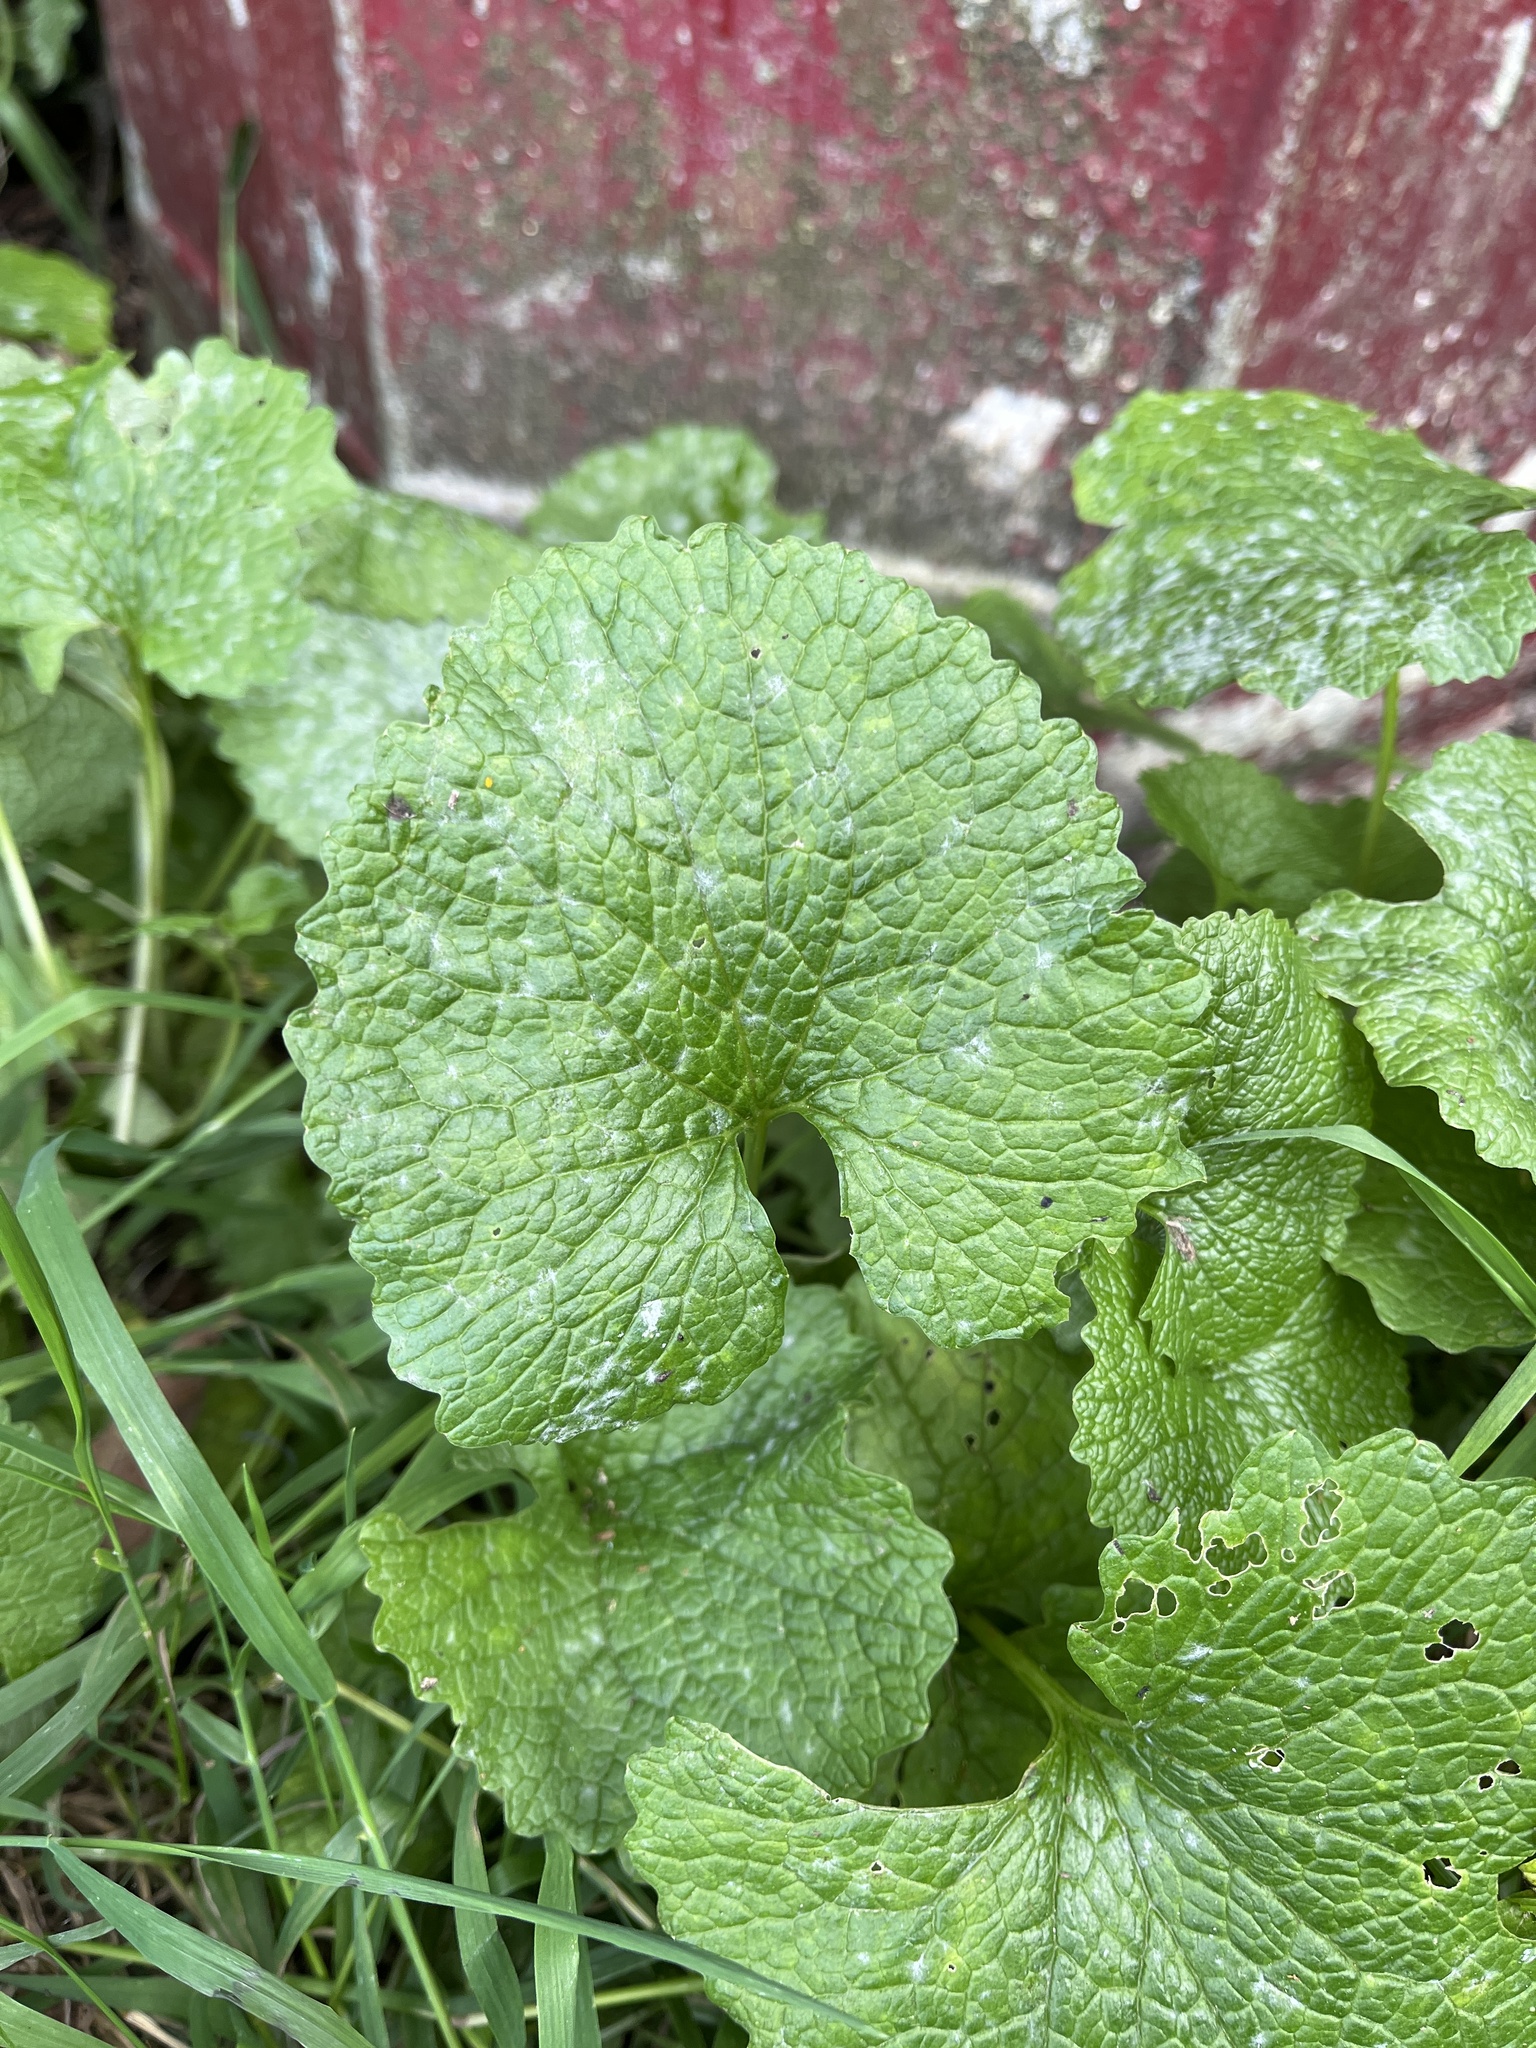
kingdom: Fungi
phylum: Ascomycota
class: Leotiomycetes
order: Helotiales
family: Erysiphaceae
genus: Erysiphe
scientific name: Erysiphe cruciferarum
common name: Brassica powdery mildew
